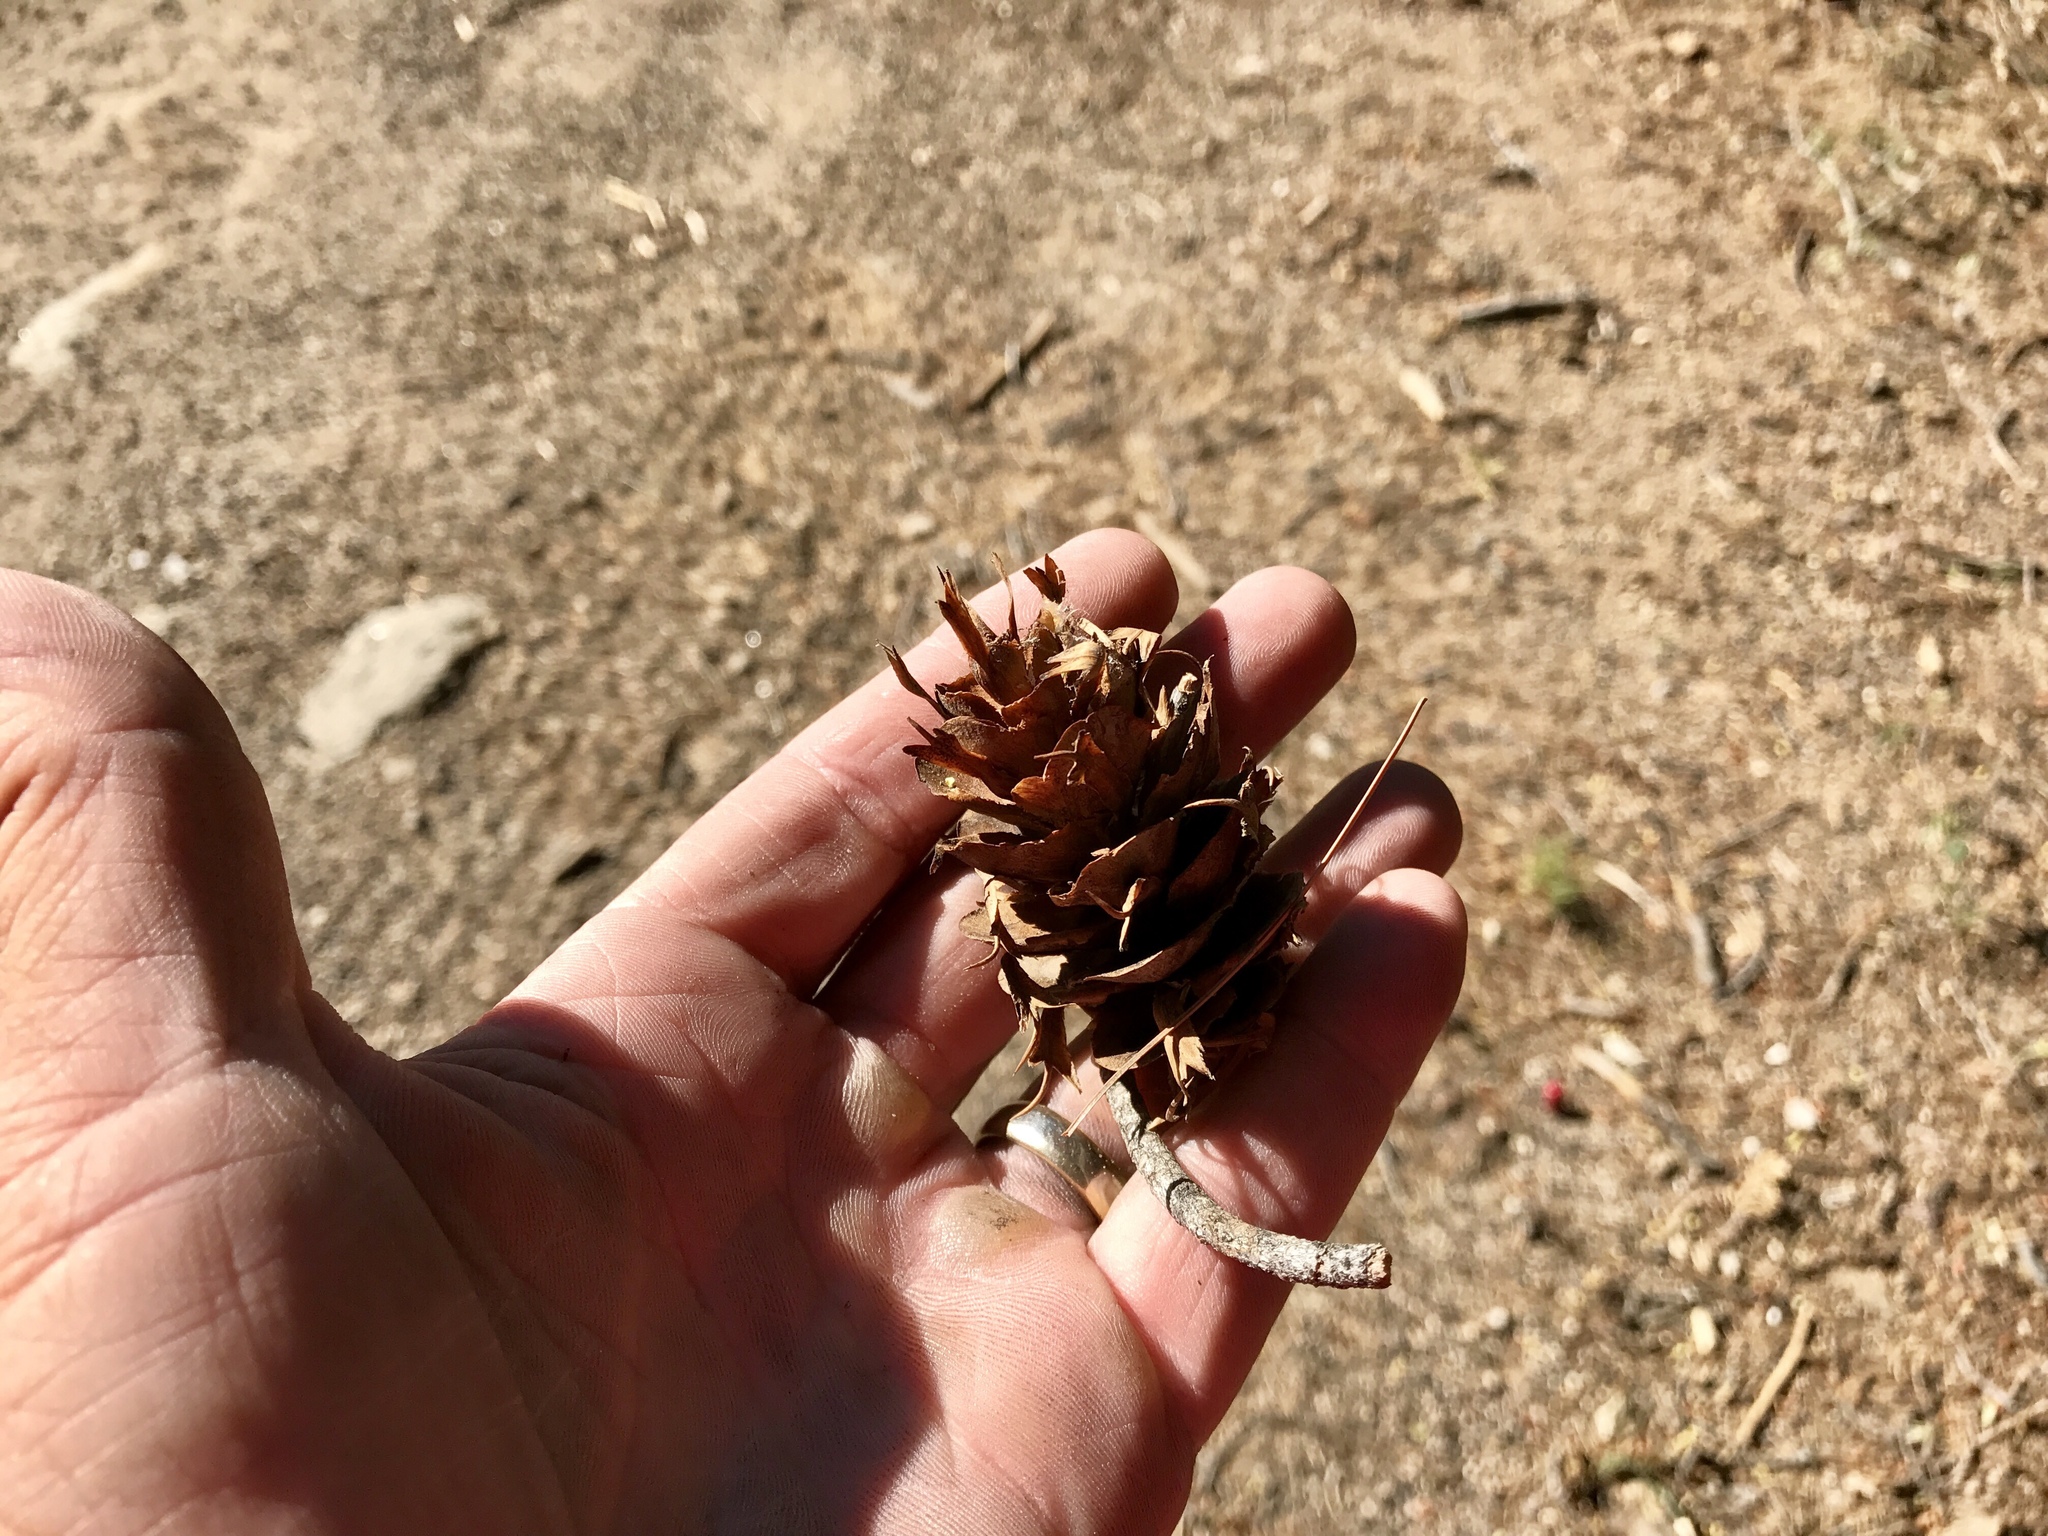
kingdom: Plantae
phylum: Tracheophyta
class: Pinopsida
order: Pinales
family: Pinaceae
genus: Pseudotsuga
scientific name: Pseudotsuga menziesii
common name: Douglas fir
